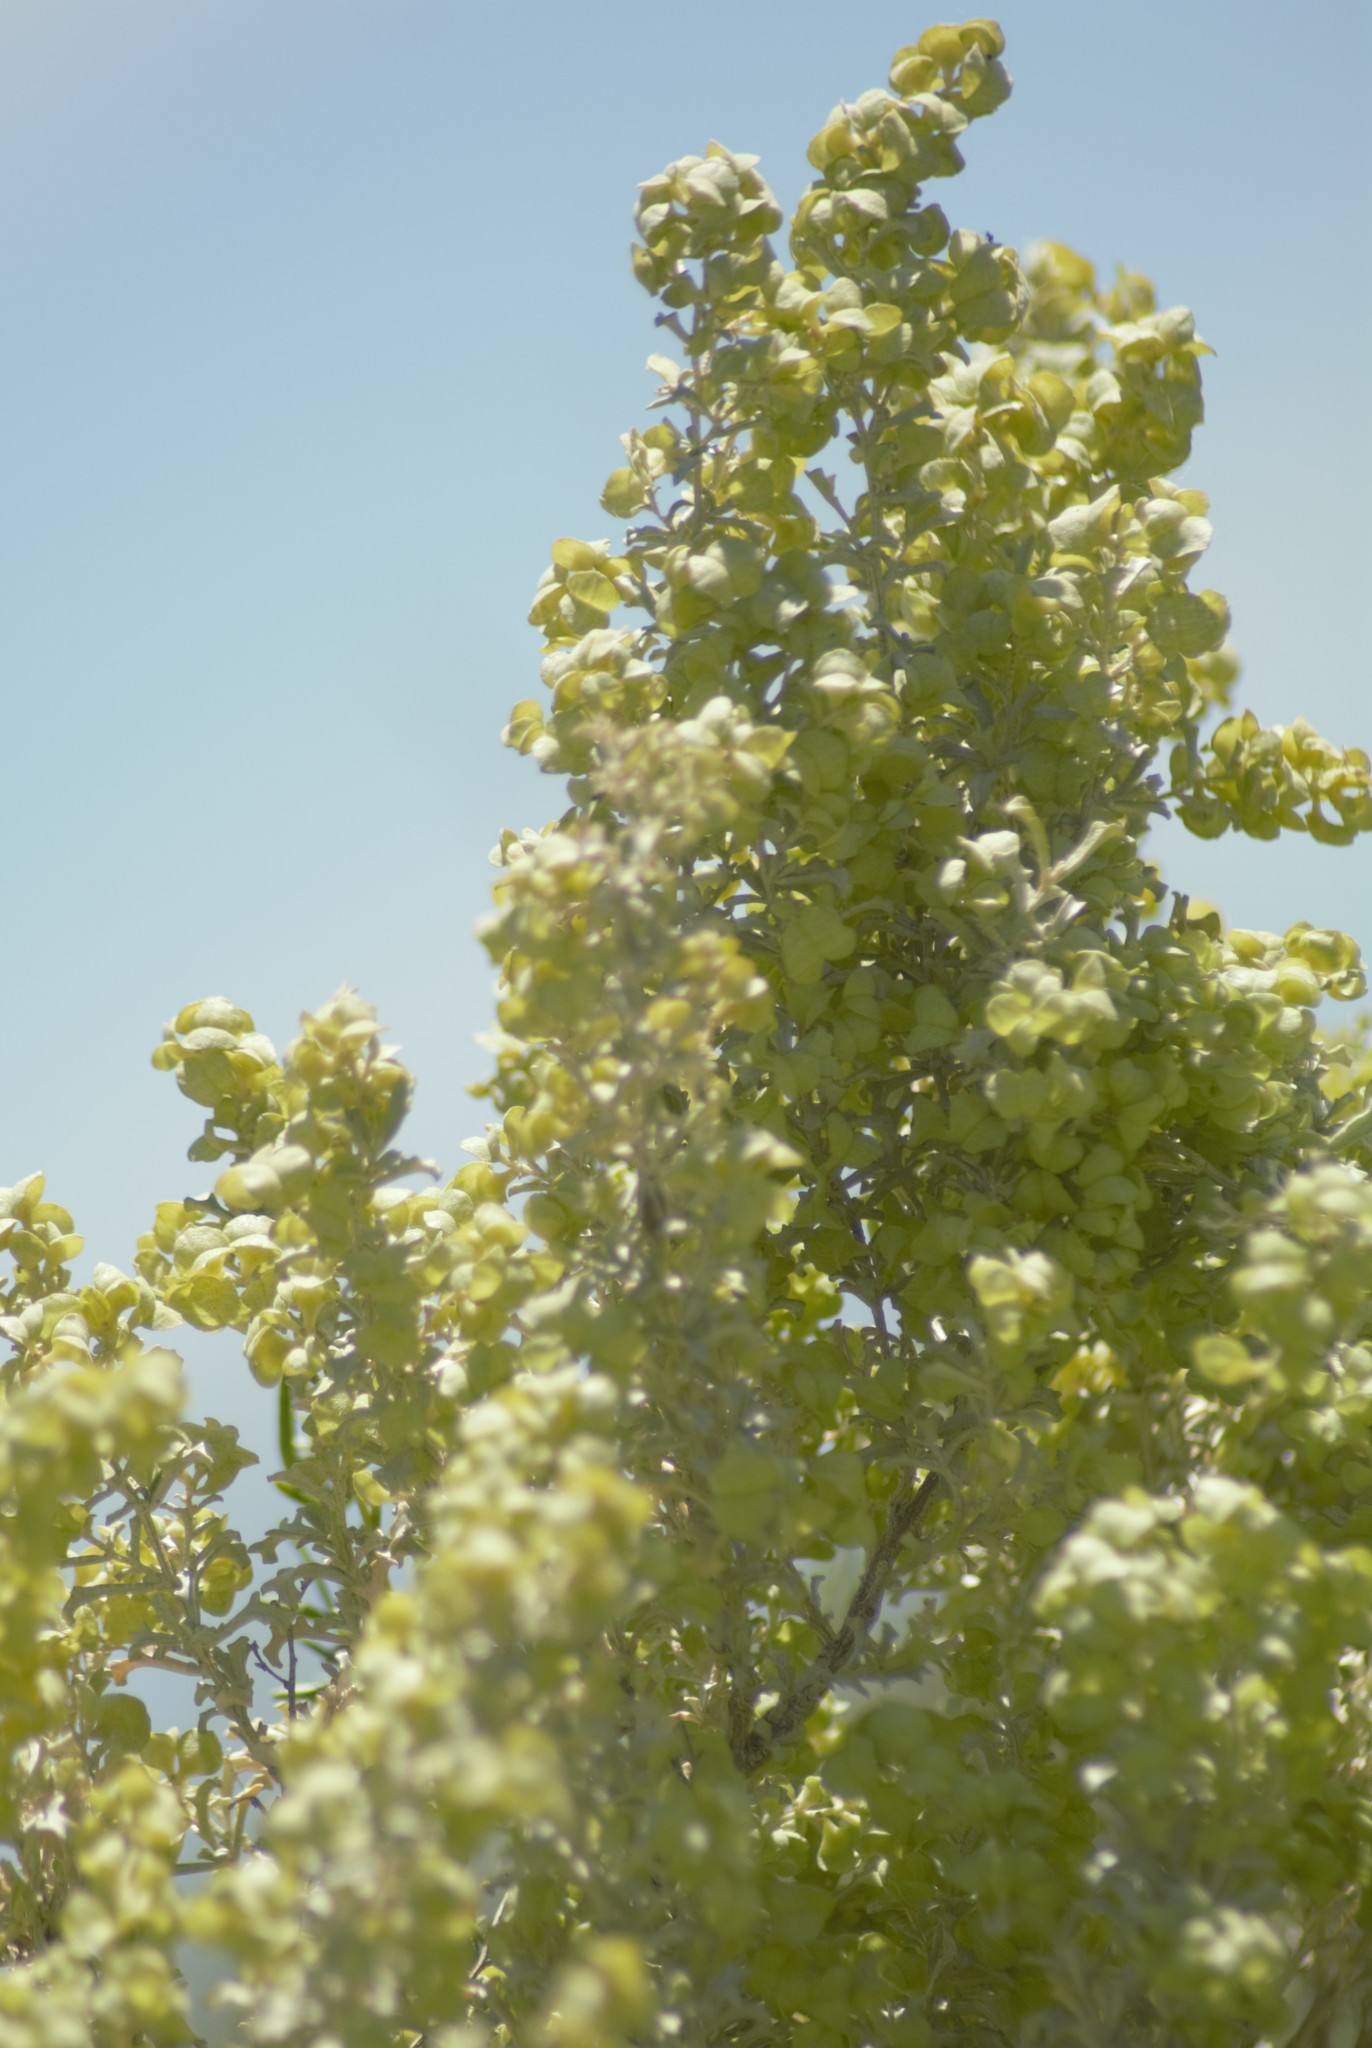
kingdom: Plantae
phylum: Tracheophyta
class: Magnoliopsida
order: Caryophyllales
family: Amaranthaceae
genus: Atriplex
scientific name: Atriplex lampa
